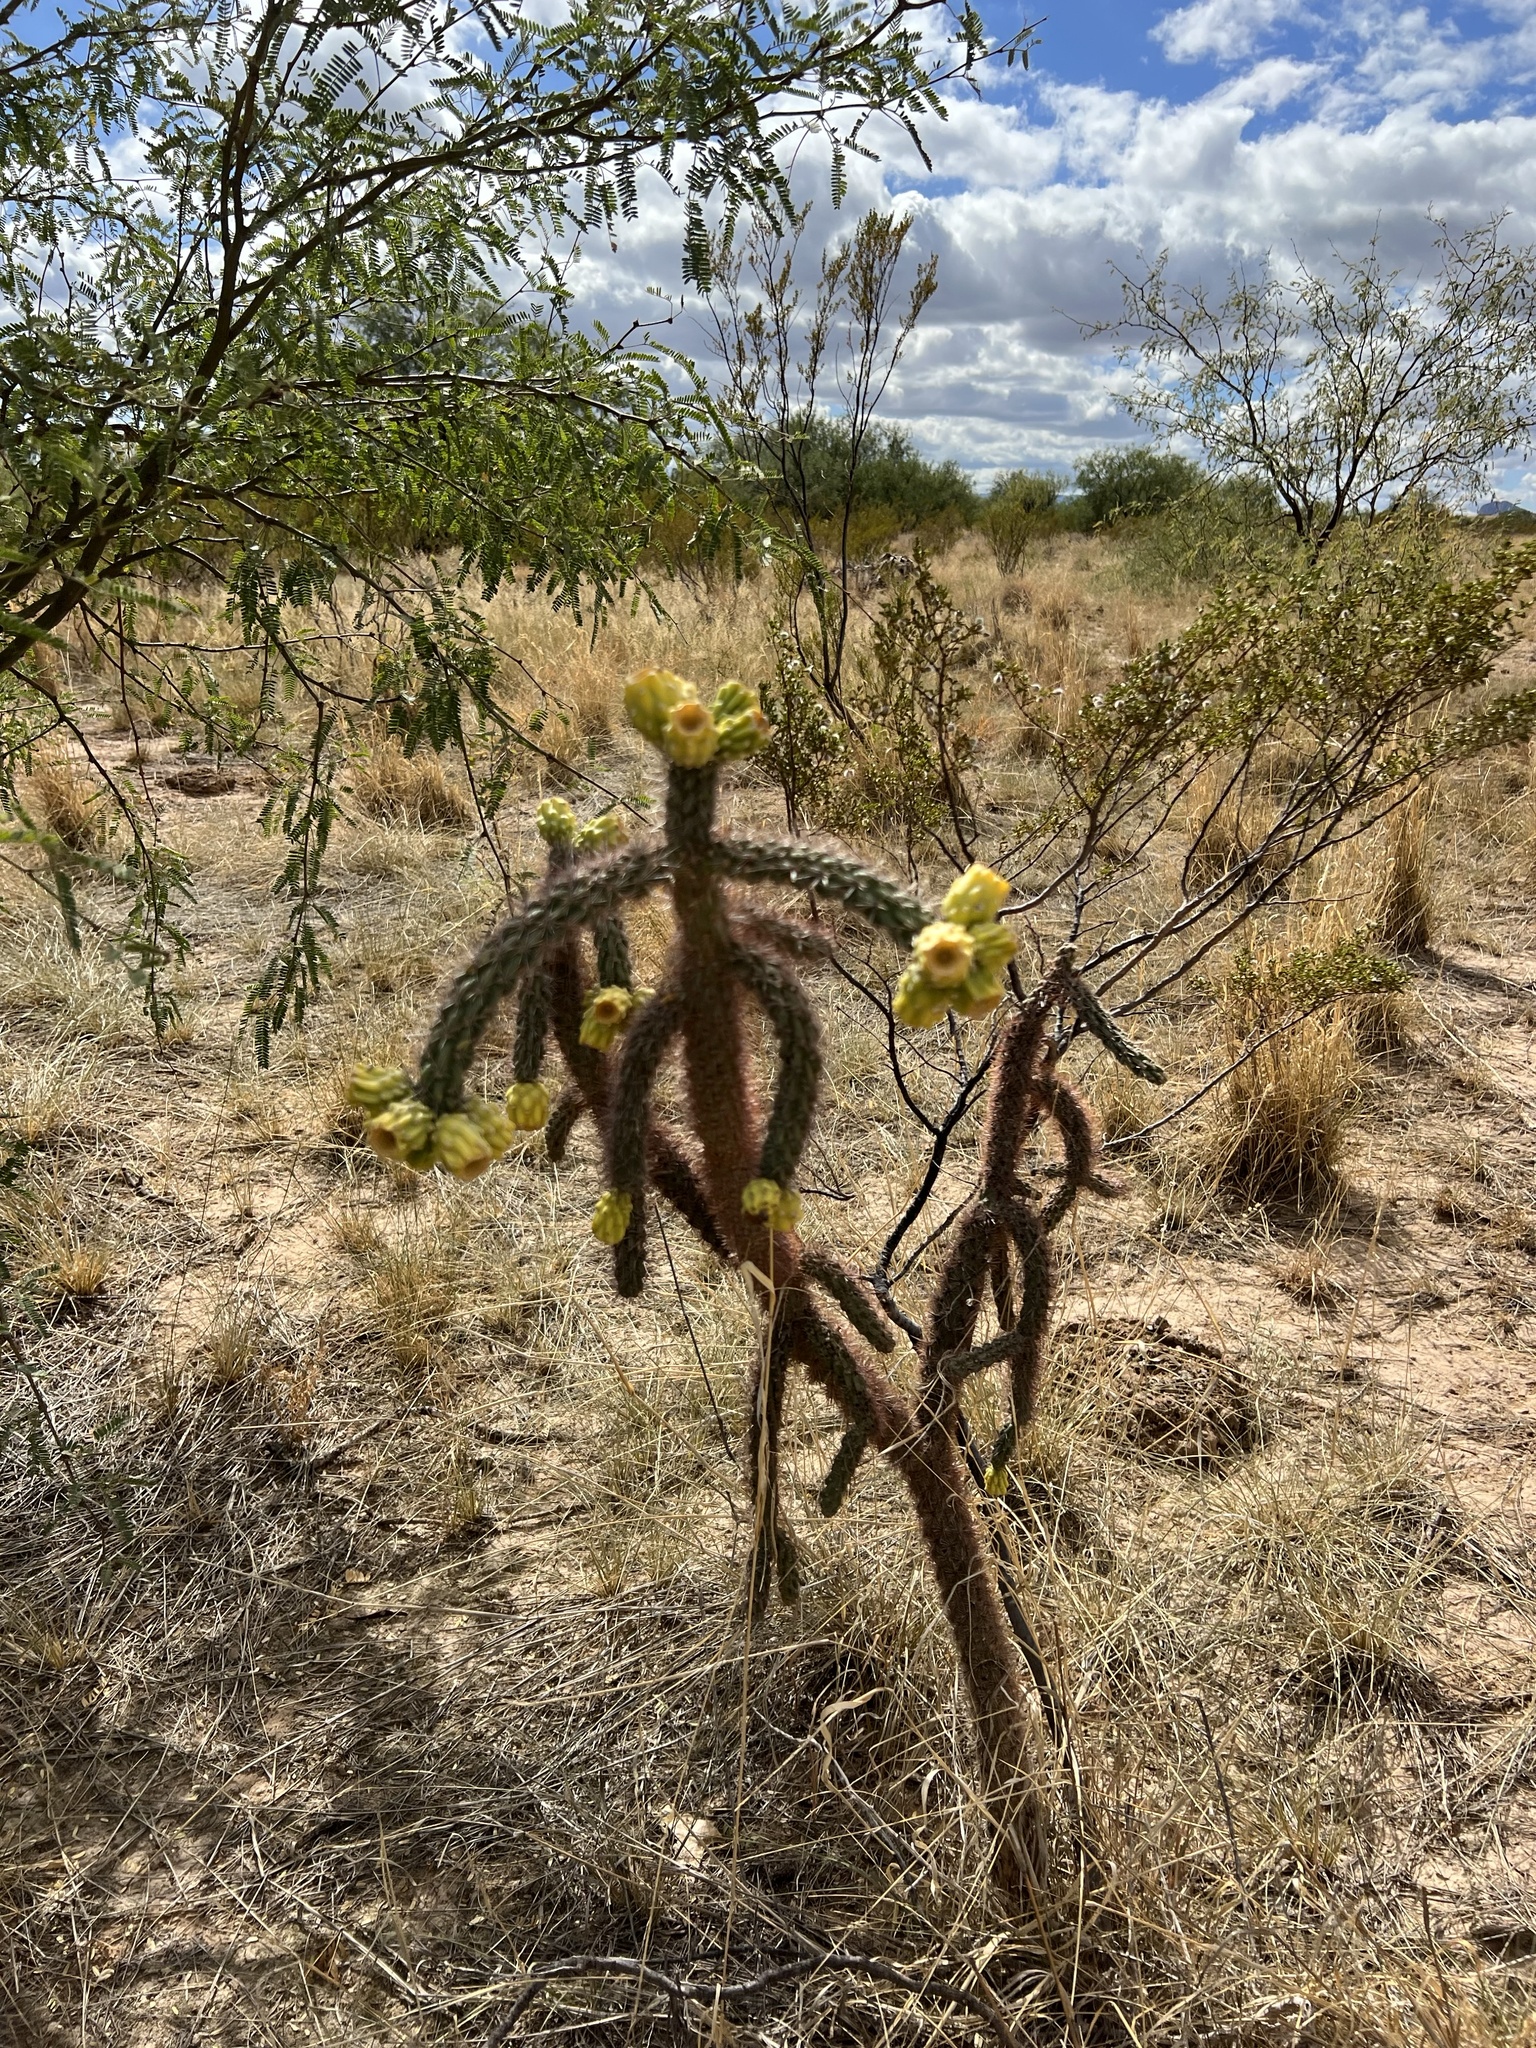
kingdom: Plantae
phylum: Tracheophyta
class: Magnoliopsida
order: Caryophyllales
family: Cactaceae
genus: Cylindropuntia
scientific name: Cylindropuntia imbricata
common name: Candelabrum cactus
